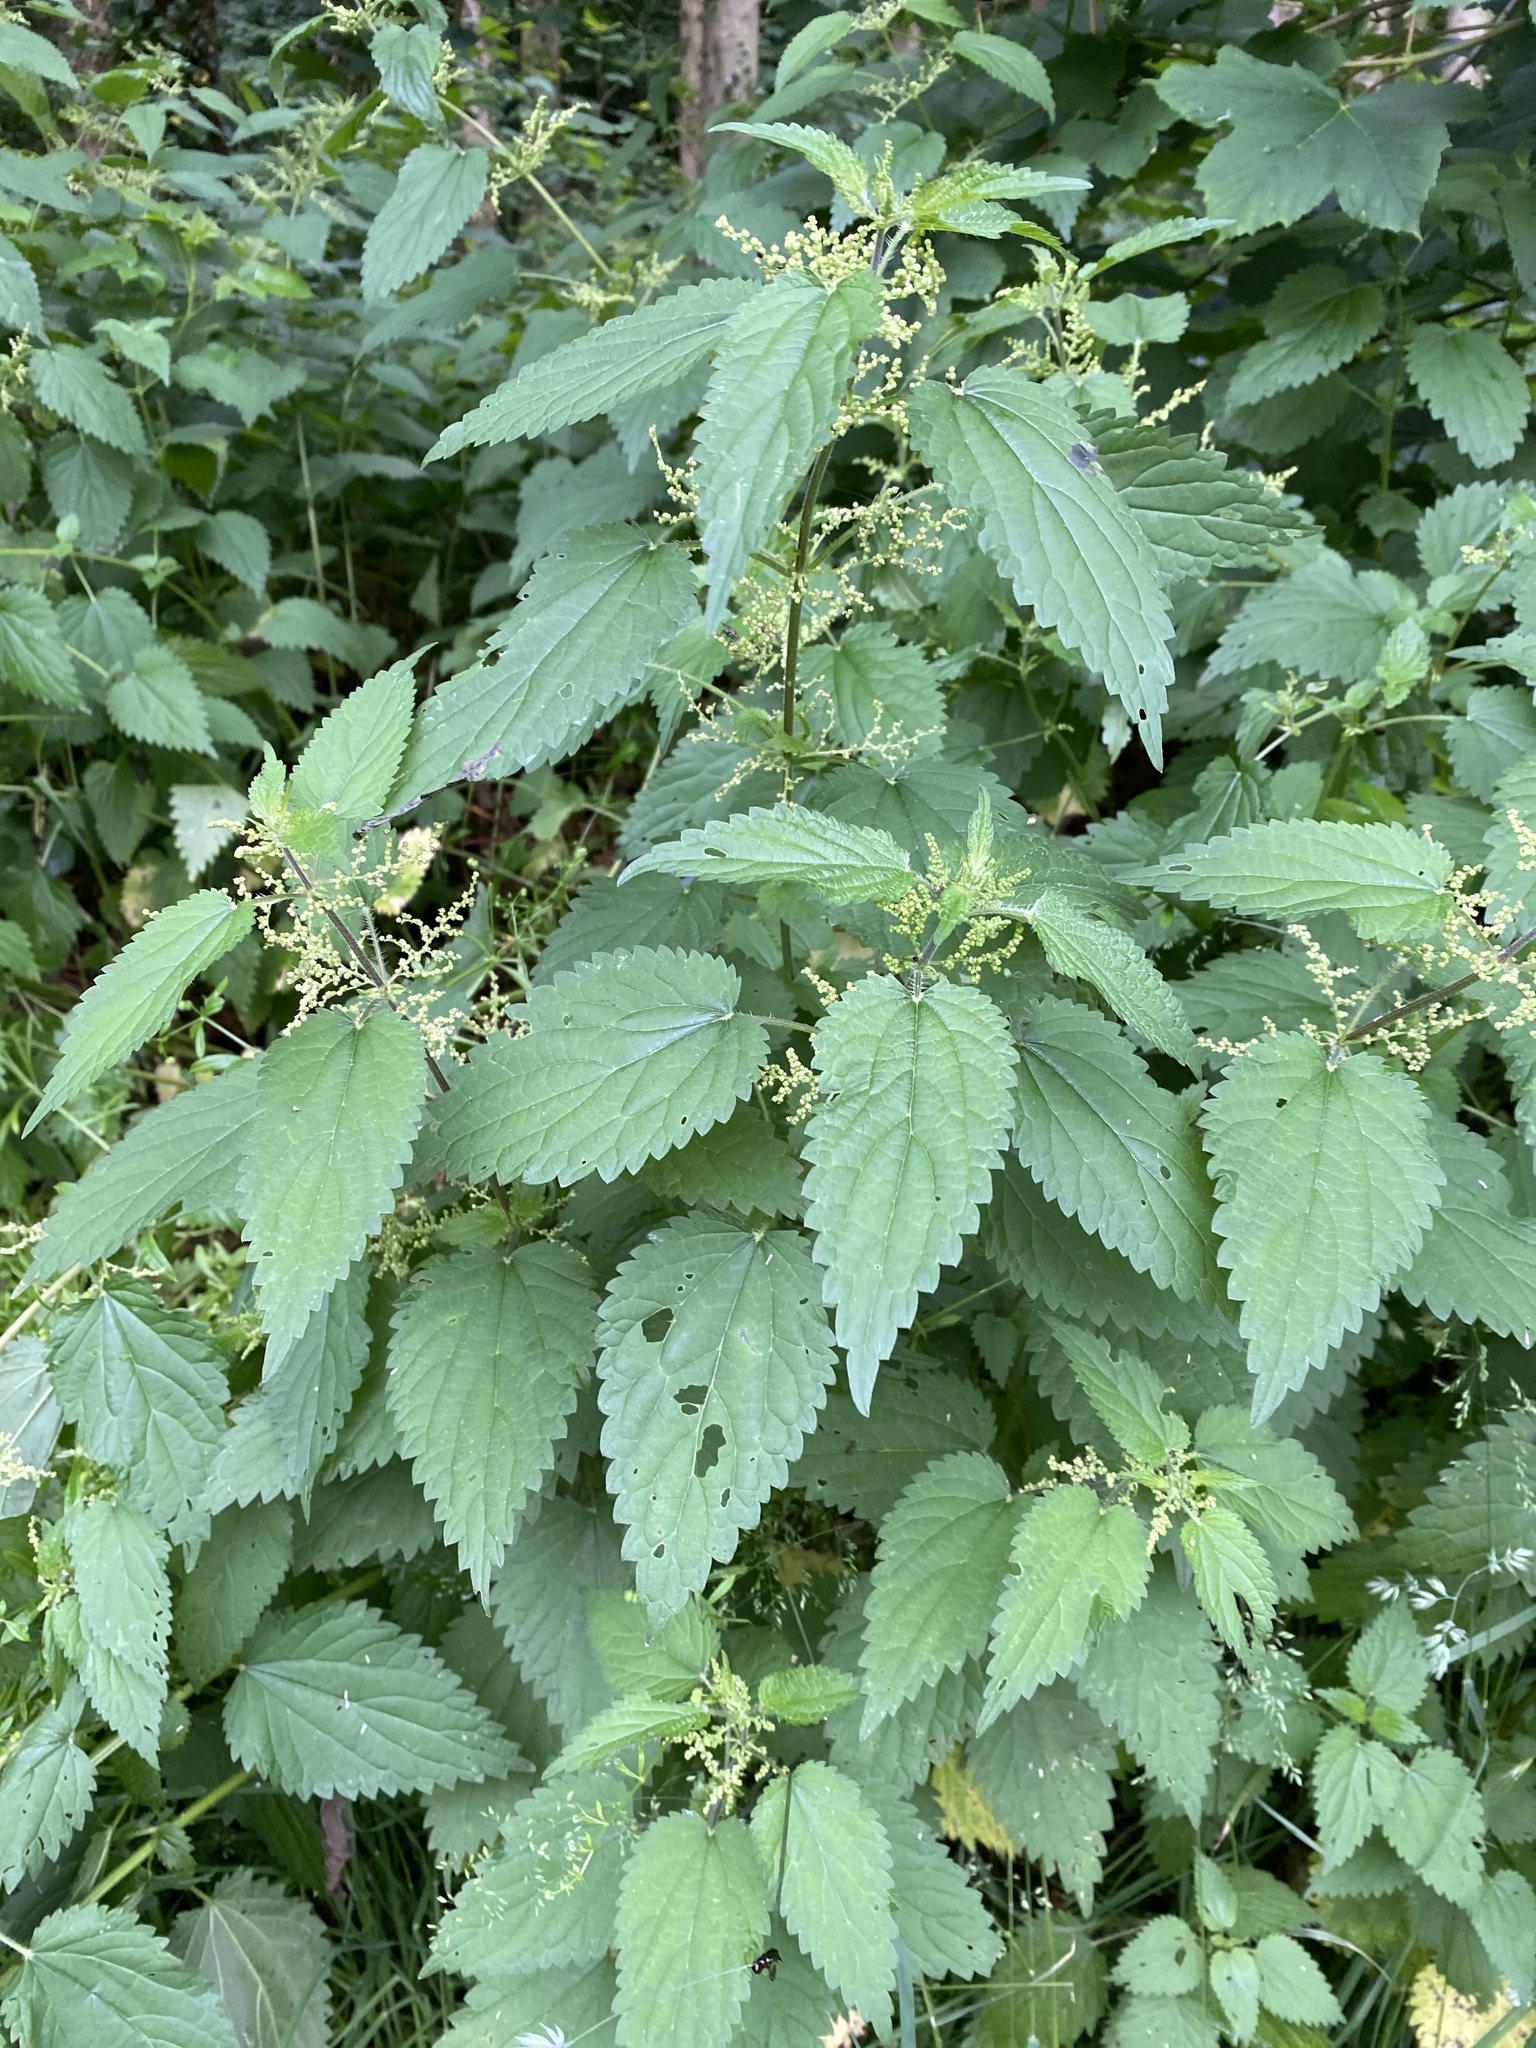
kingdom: Plantae
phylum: Tracheophyta
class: Magnoliopsida
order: Rosales
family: Urticaceae
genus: Urtica
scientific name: Urtica dioica
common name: Common nettle
